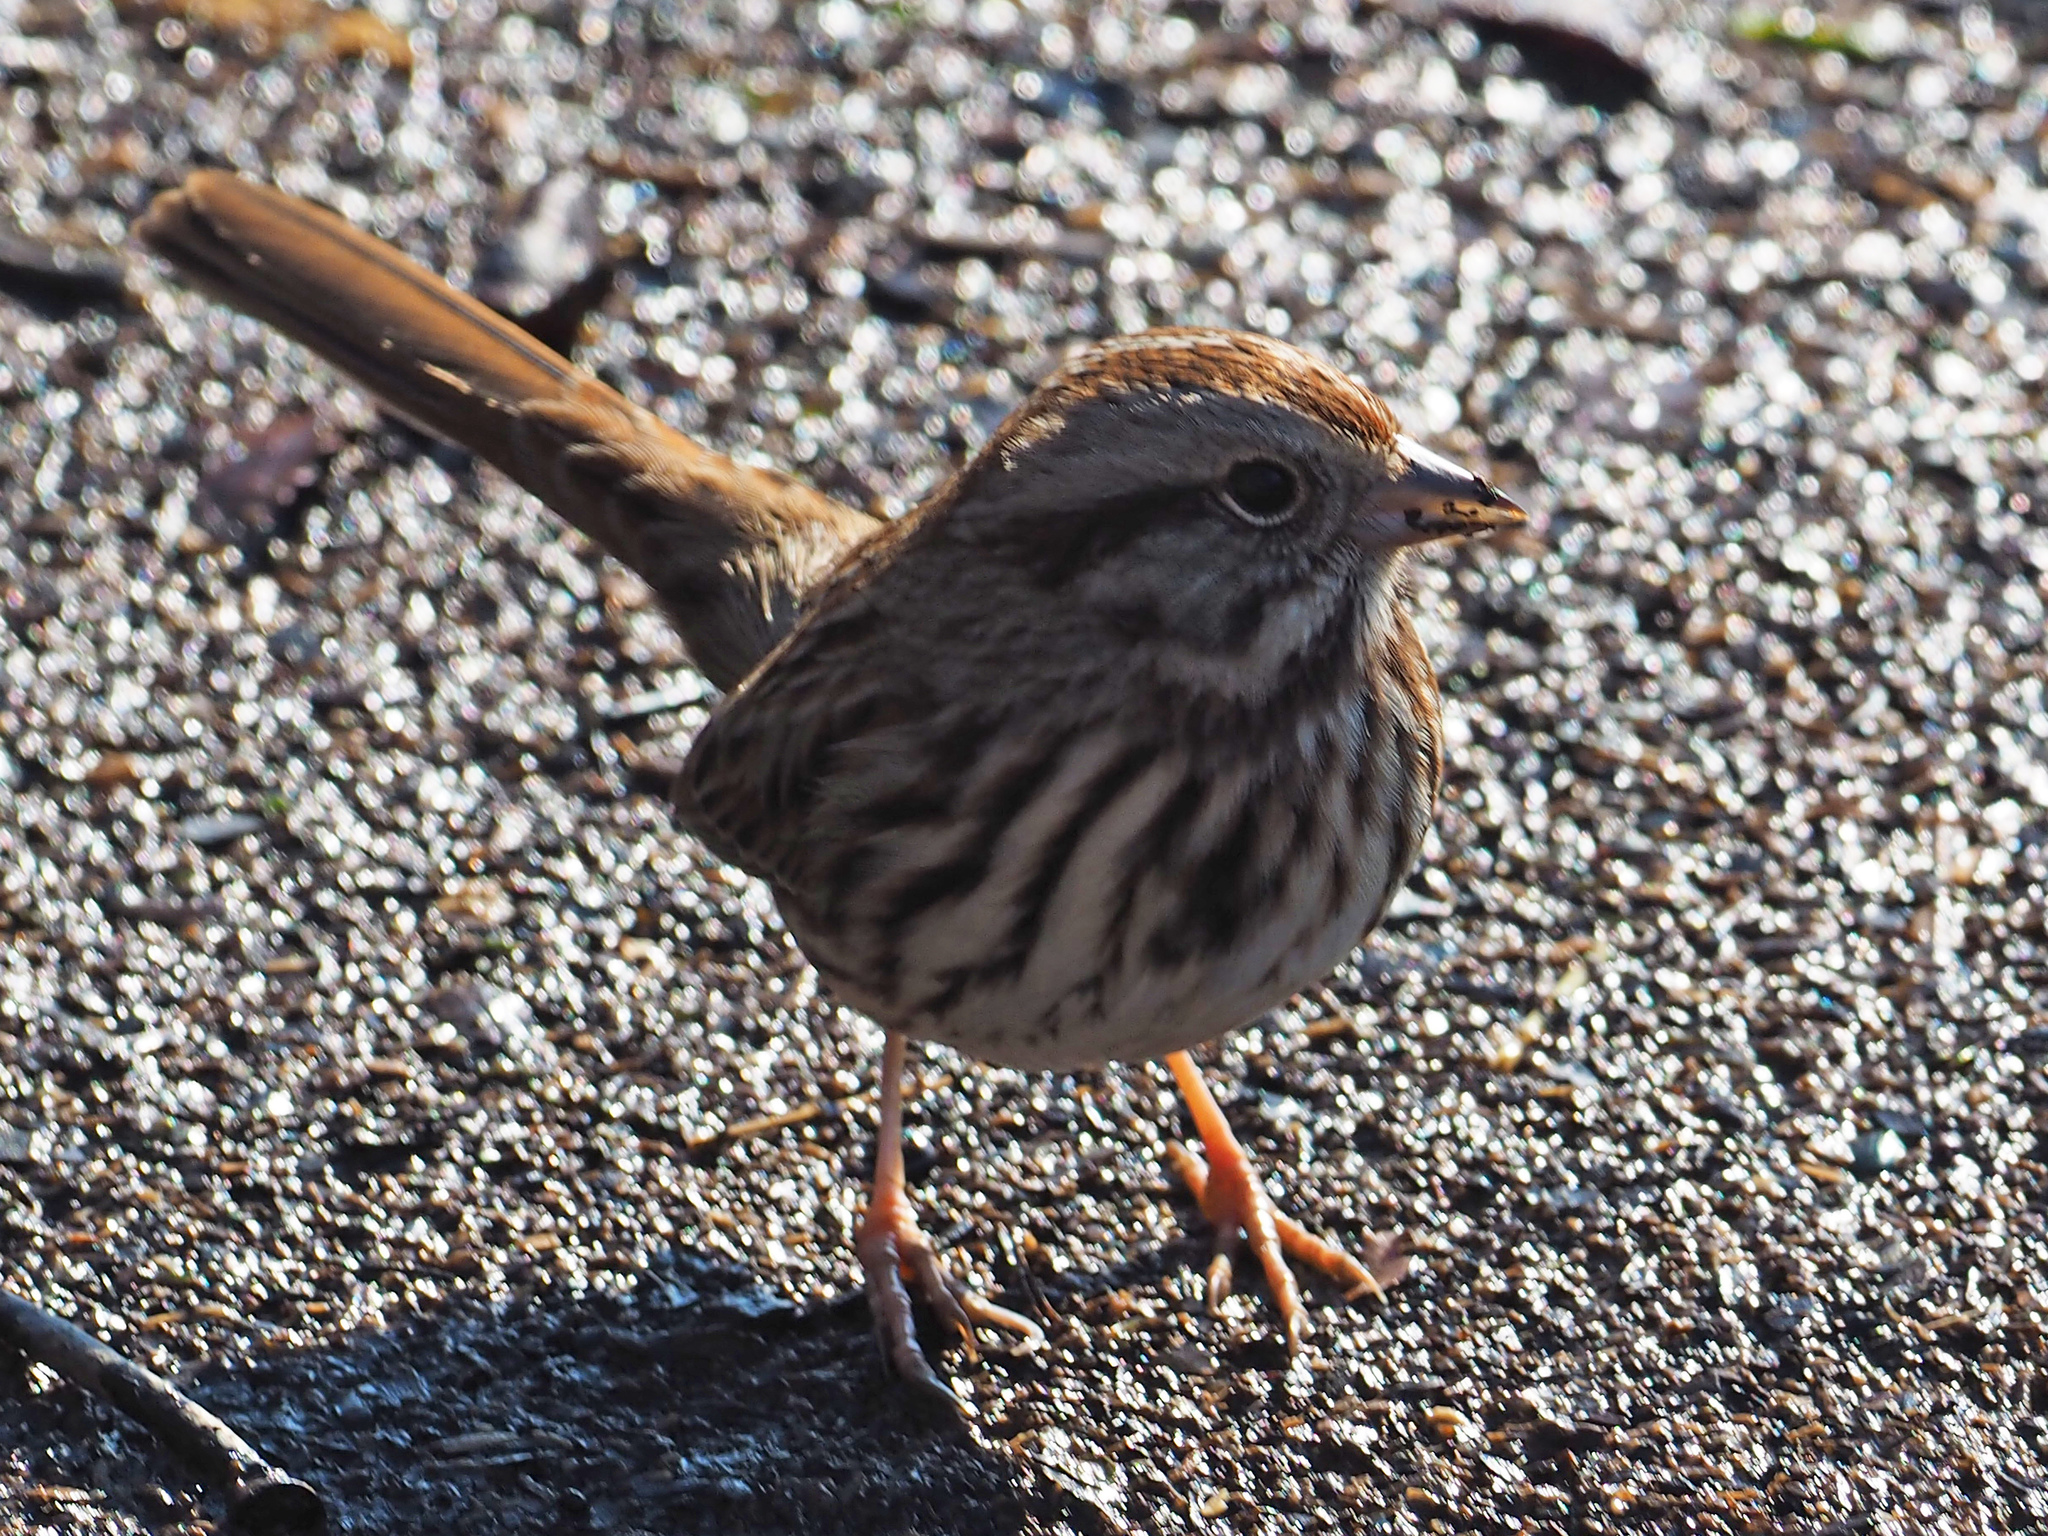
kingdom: Animalia
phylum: Chordata
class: Aves
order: Passeriformes
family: Passerellidae
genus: Melospiza
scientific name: Melospiza melodia
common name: Song sparrow
